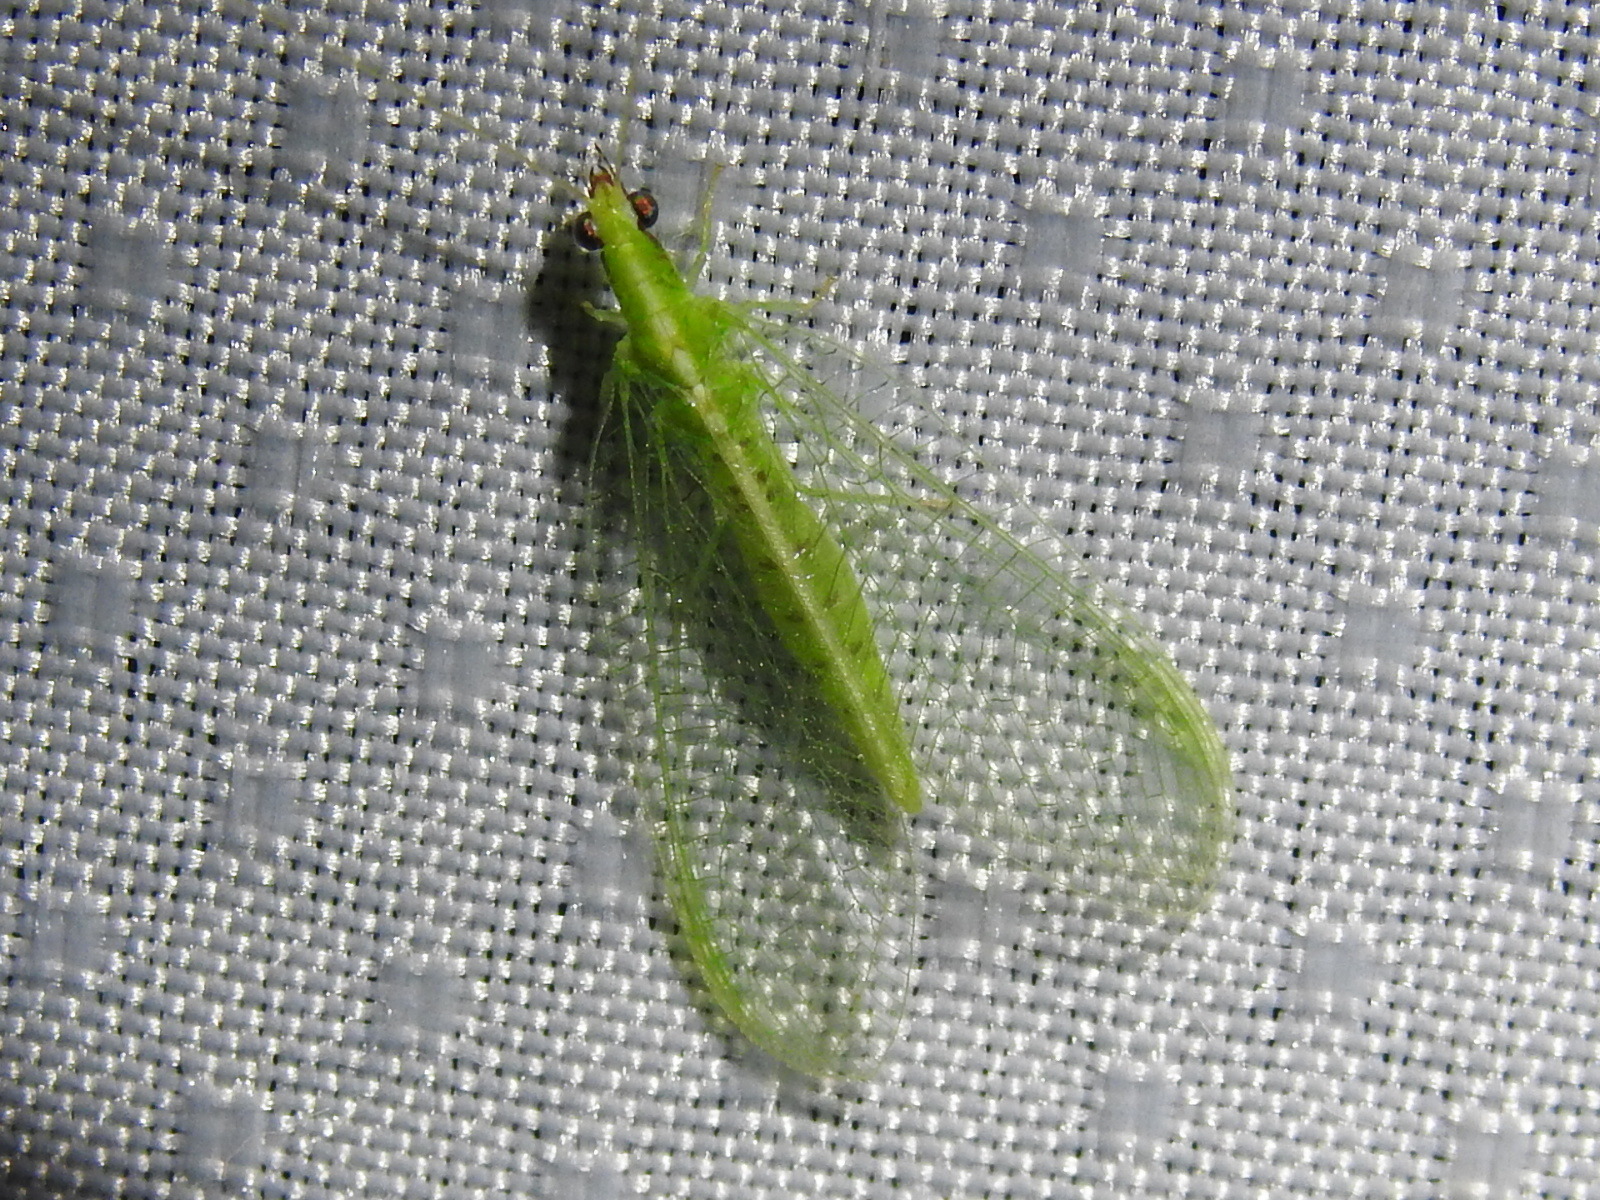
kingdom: Animalia
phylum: Arthropoda
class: Insecta
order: Neuroptera
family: Chrysopidae
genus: Chrysoperla
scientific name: Chrysoperla rufilabris
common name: Red-lipped green lacewing
